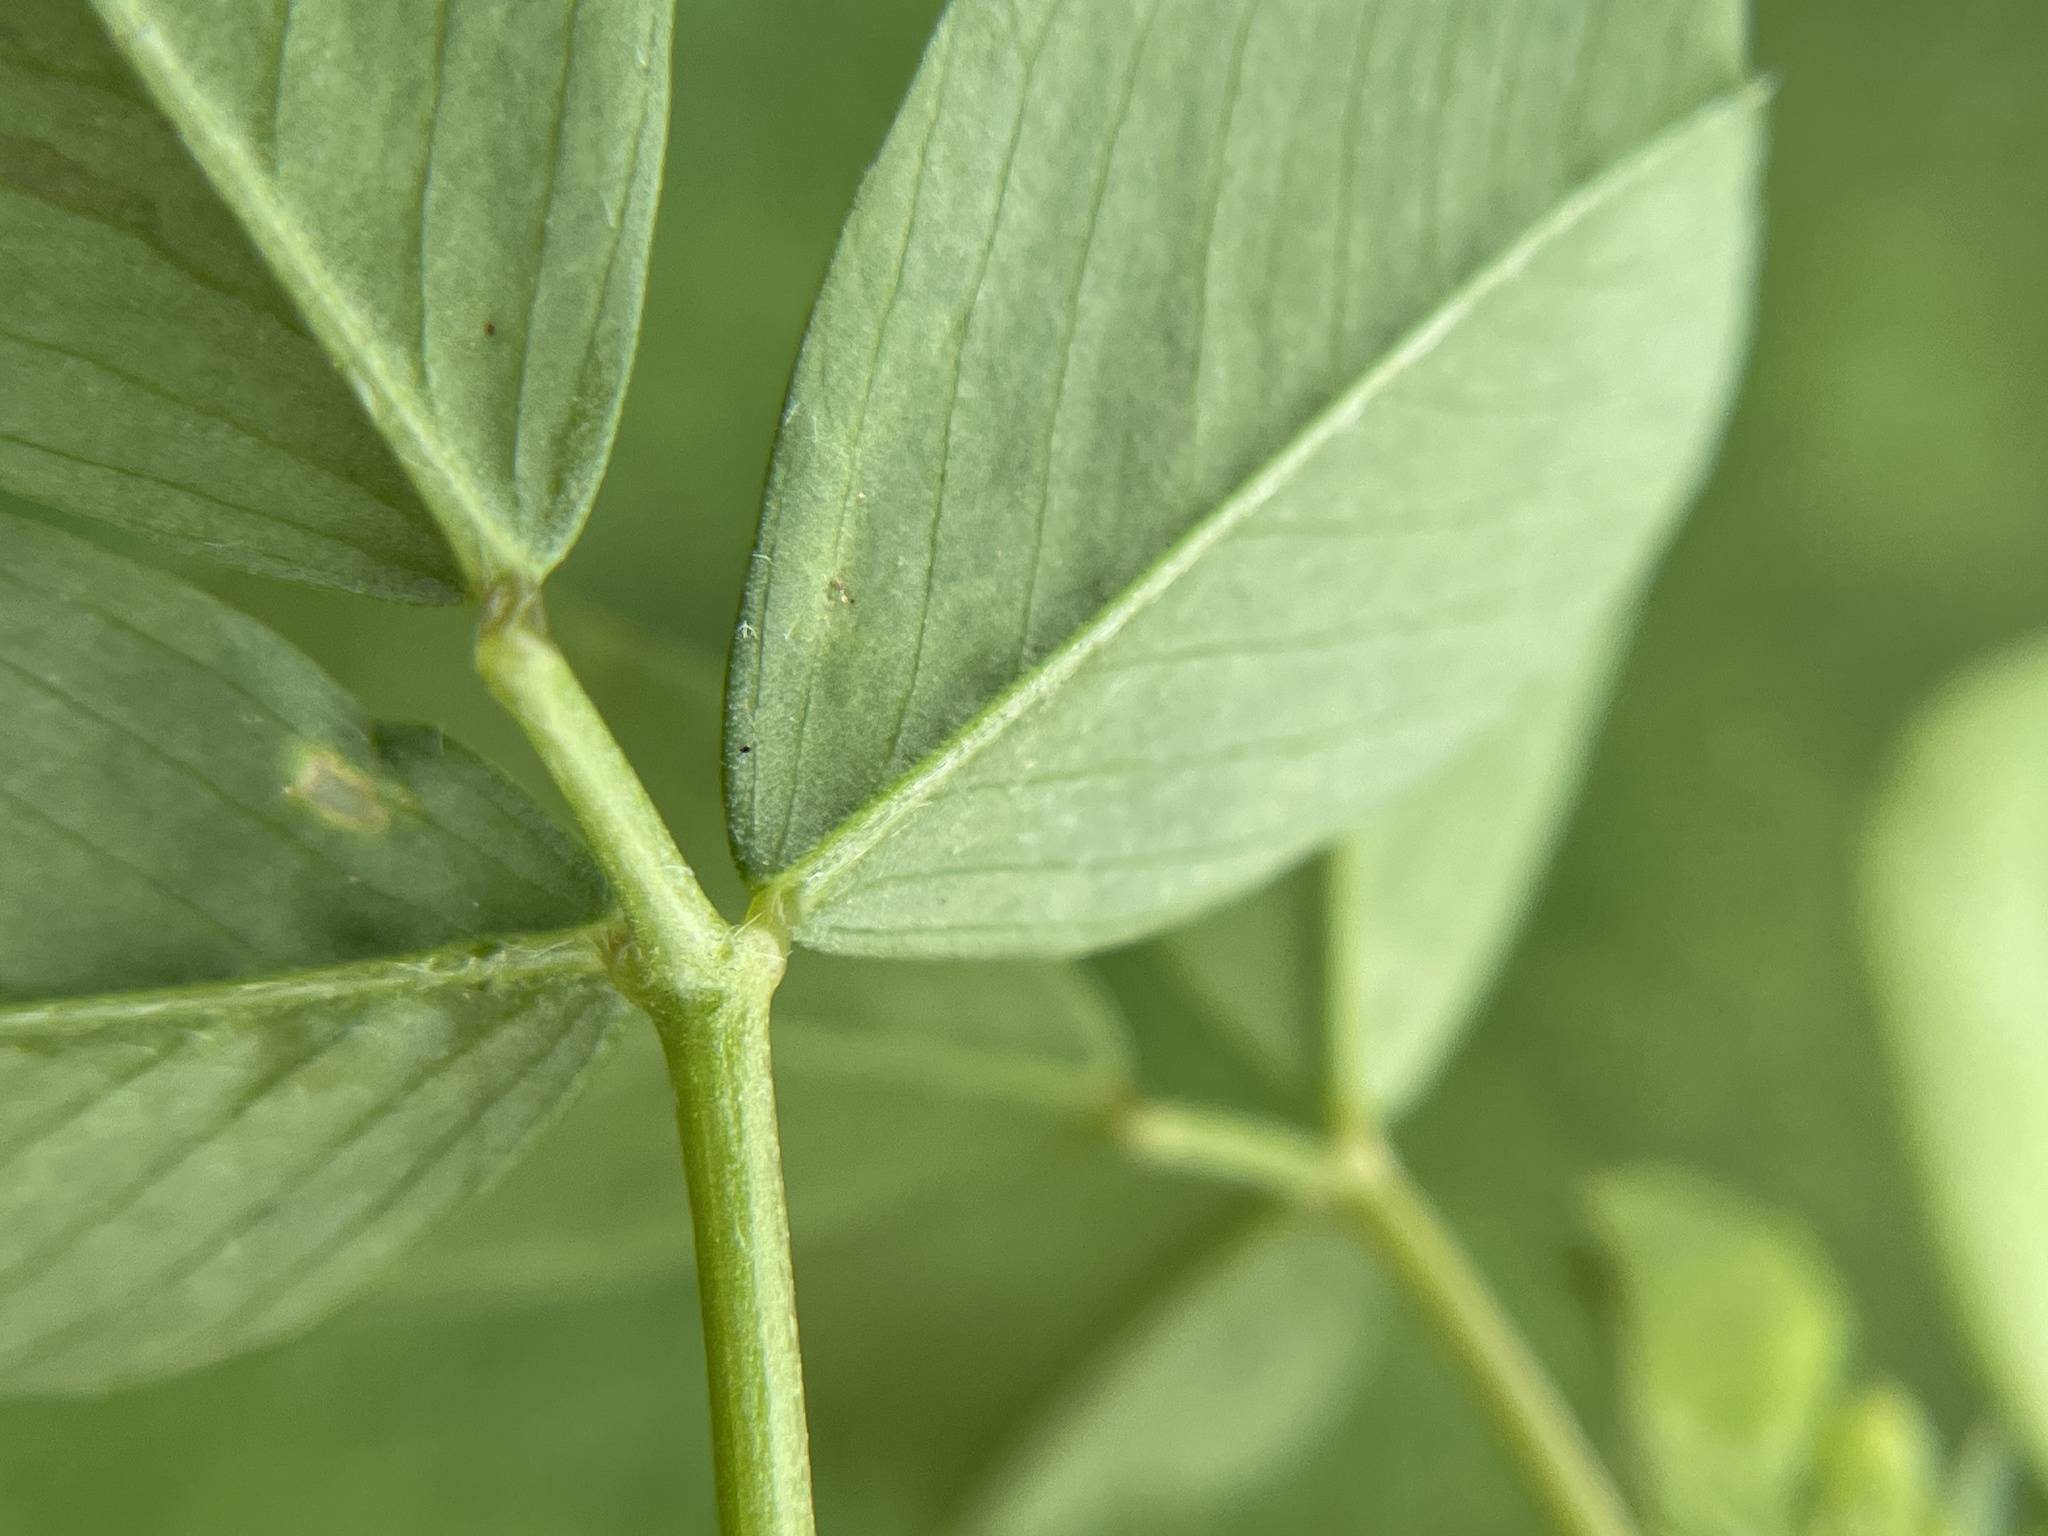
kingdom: Plantae
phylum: Tracheophyta
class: Magnoliopsida
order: Fabales
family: Fabaceae
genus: Medicago
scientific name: Medicago polymorpha
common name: Burclover
